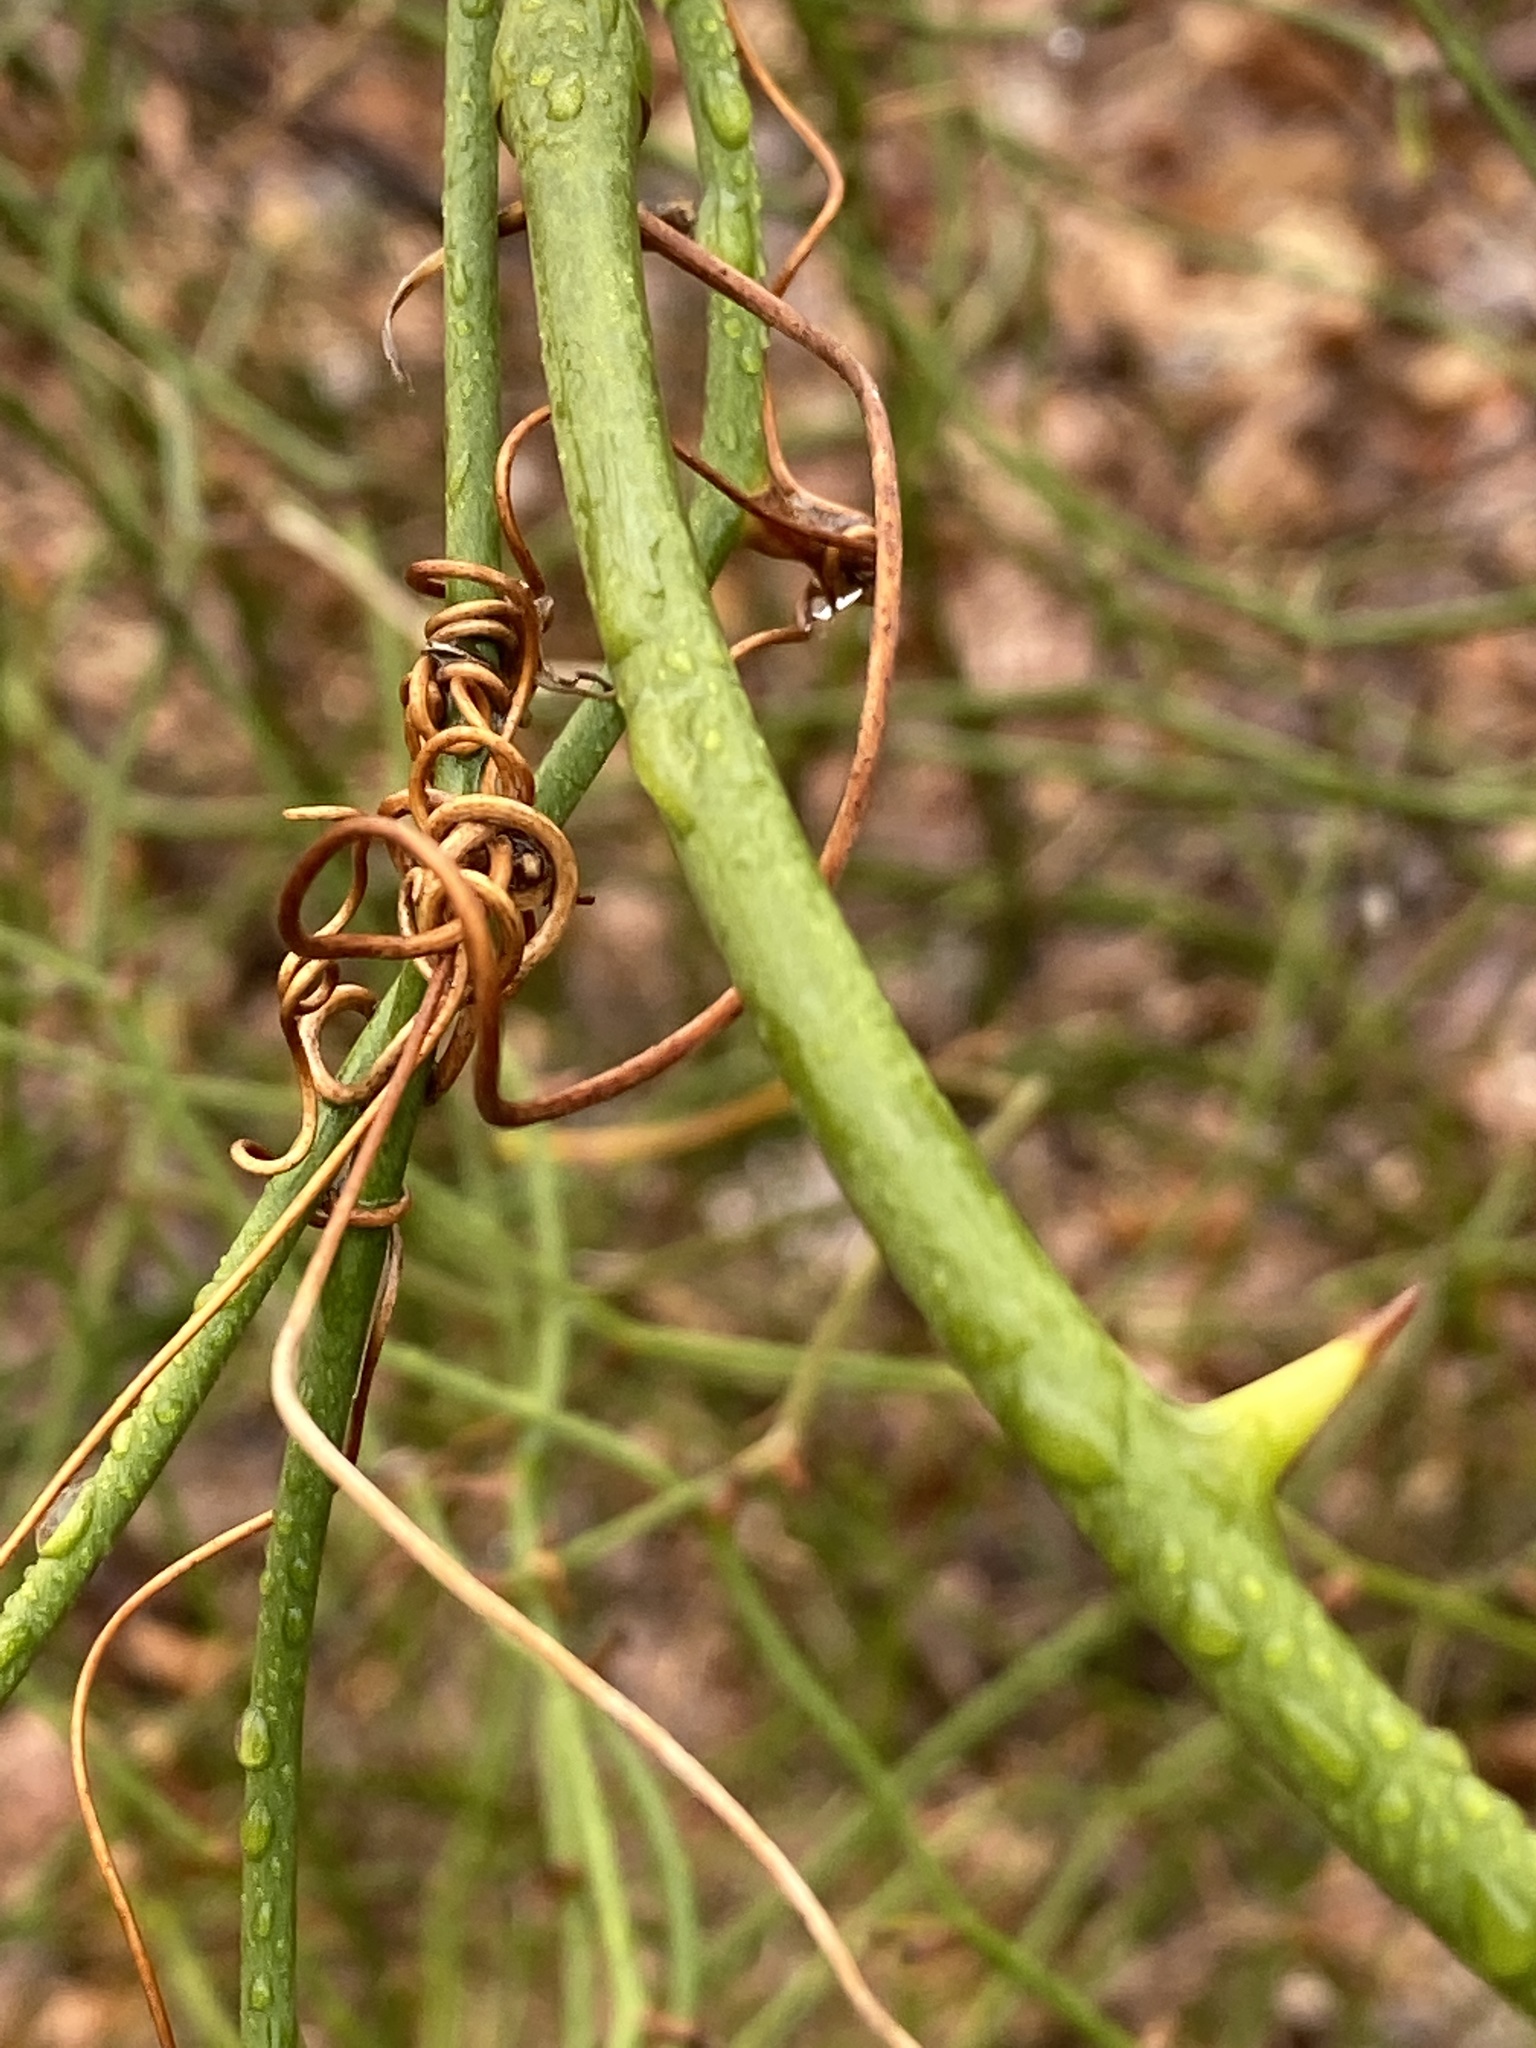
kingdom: Plantae
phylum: Tracheophyta
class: Liliopsida
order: Liliales
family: Smilacaceae
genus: Smilax
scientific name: Smilax rotundifolia
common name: Bullbriar
